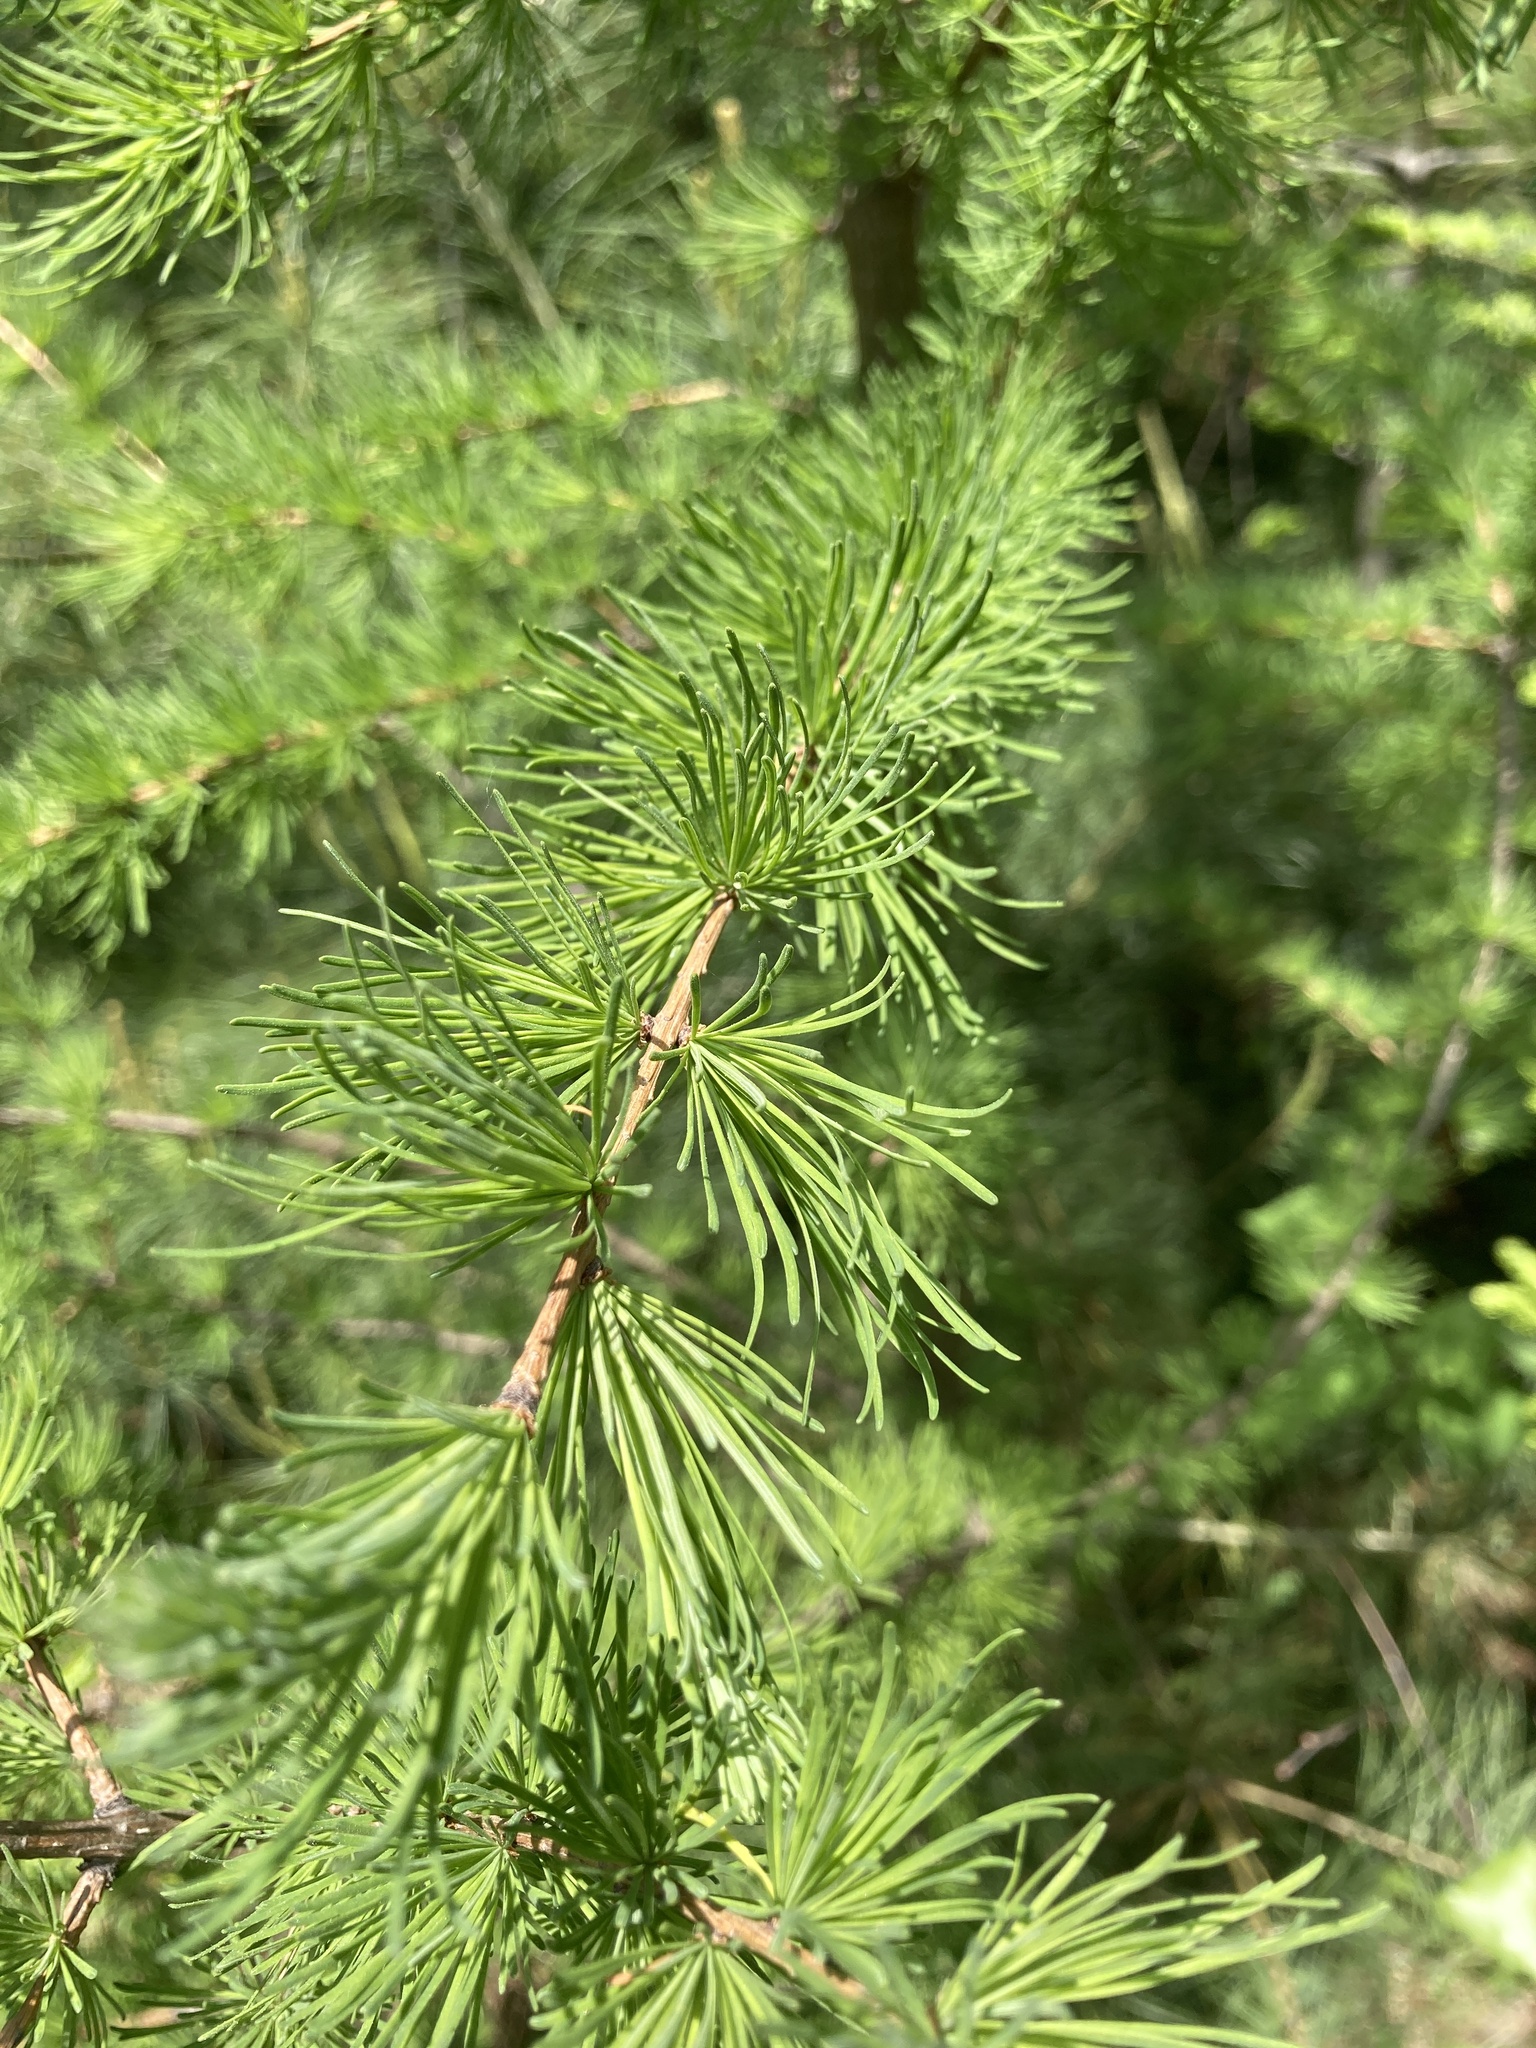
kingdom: Plantae
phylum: Tracheophyta
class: Pinopsida
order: Pinales
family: Pinaceae
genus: Larix
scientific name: Larix laricina
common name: American larch
